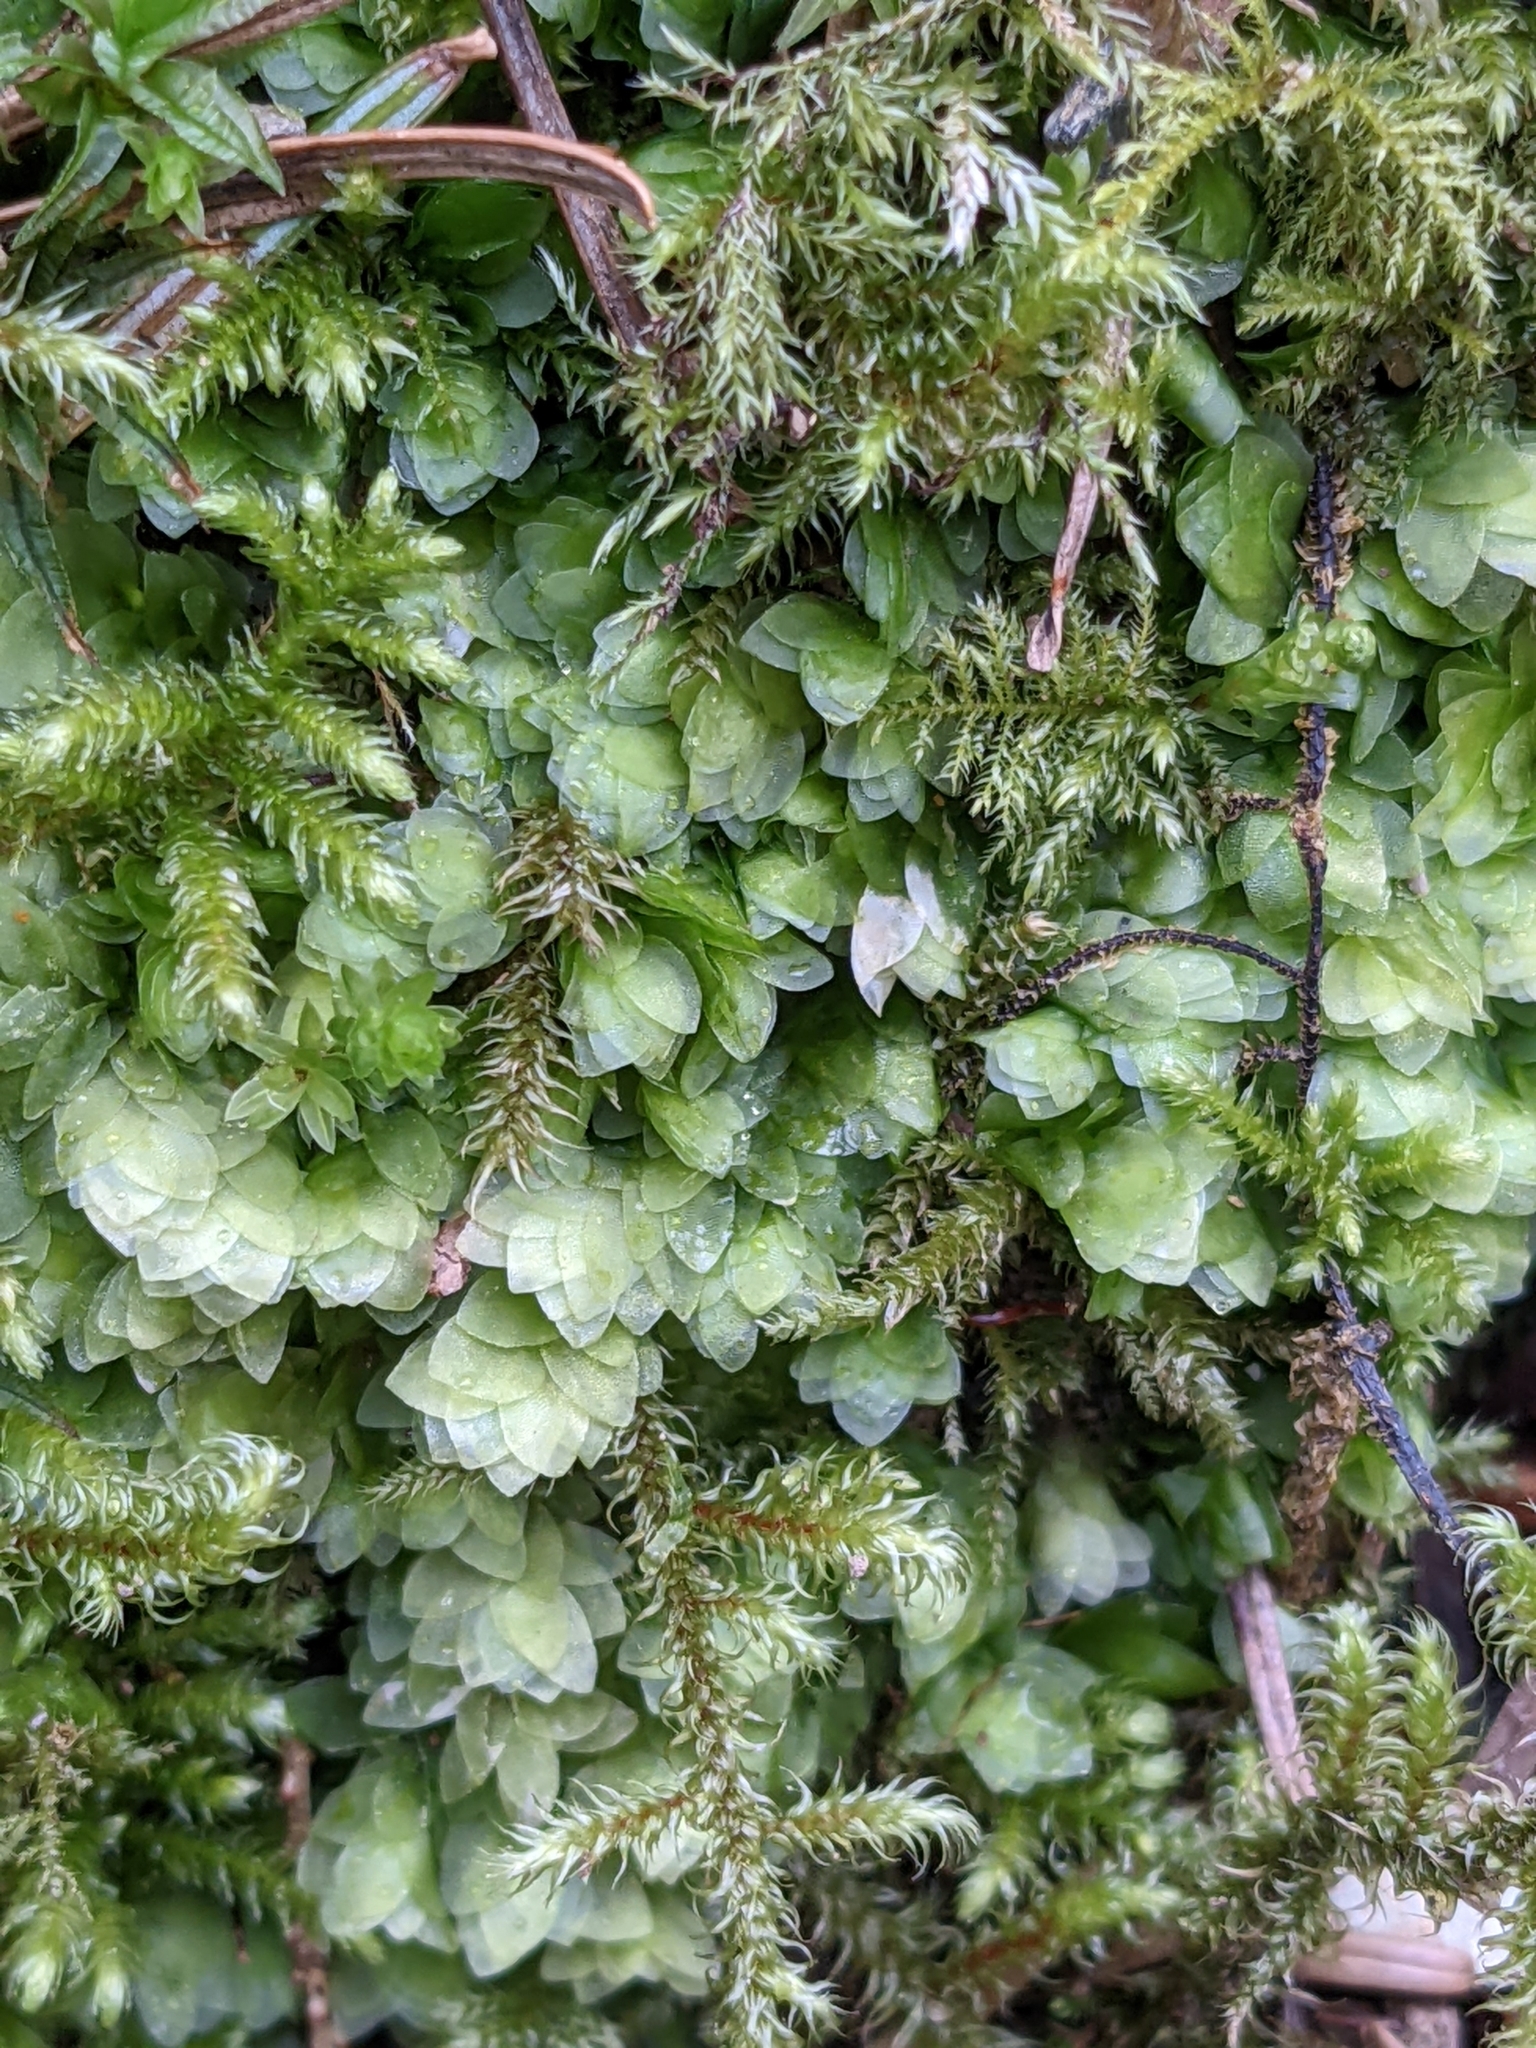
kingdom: Plantae
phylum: Bryophyta
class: Bryopsida
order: Hookeriales
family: Hookeriaceae
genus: Hookeria
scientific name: Hookeria lucens
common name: Shining hookeria
